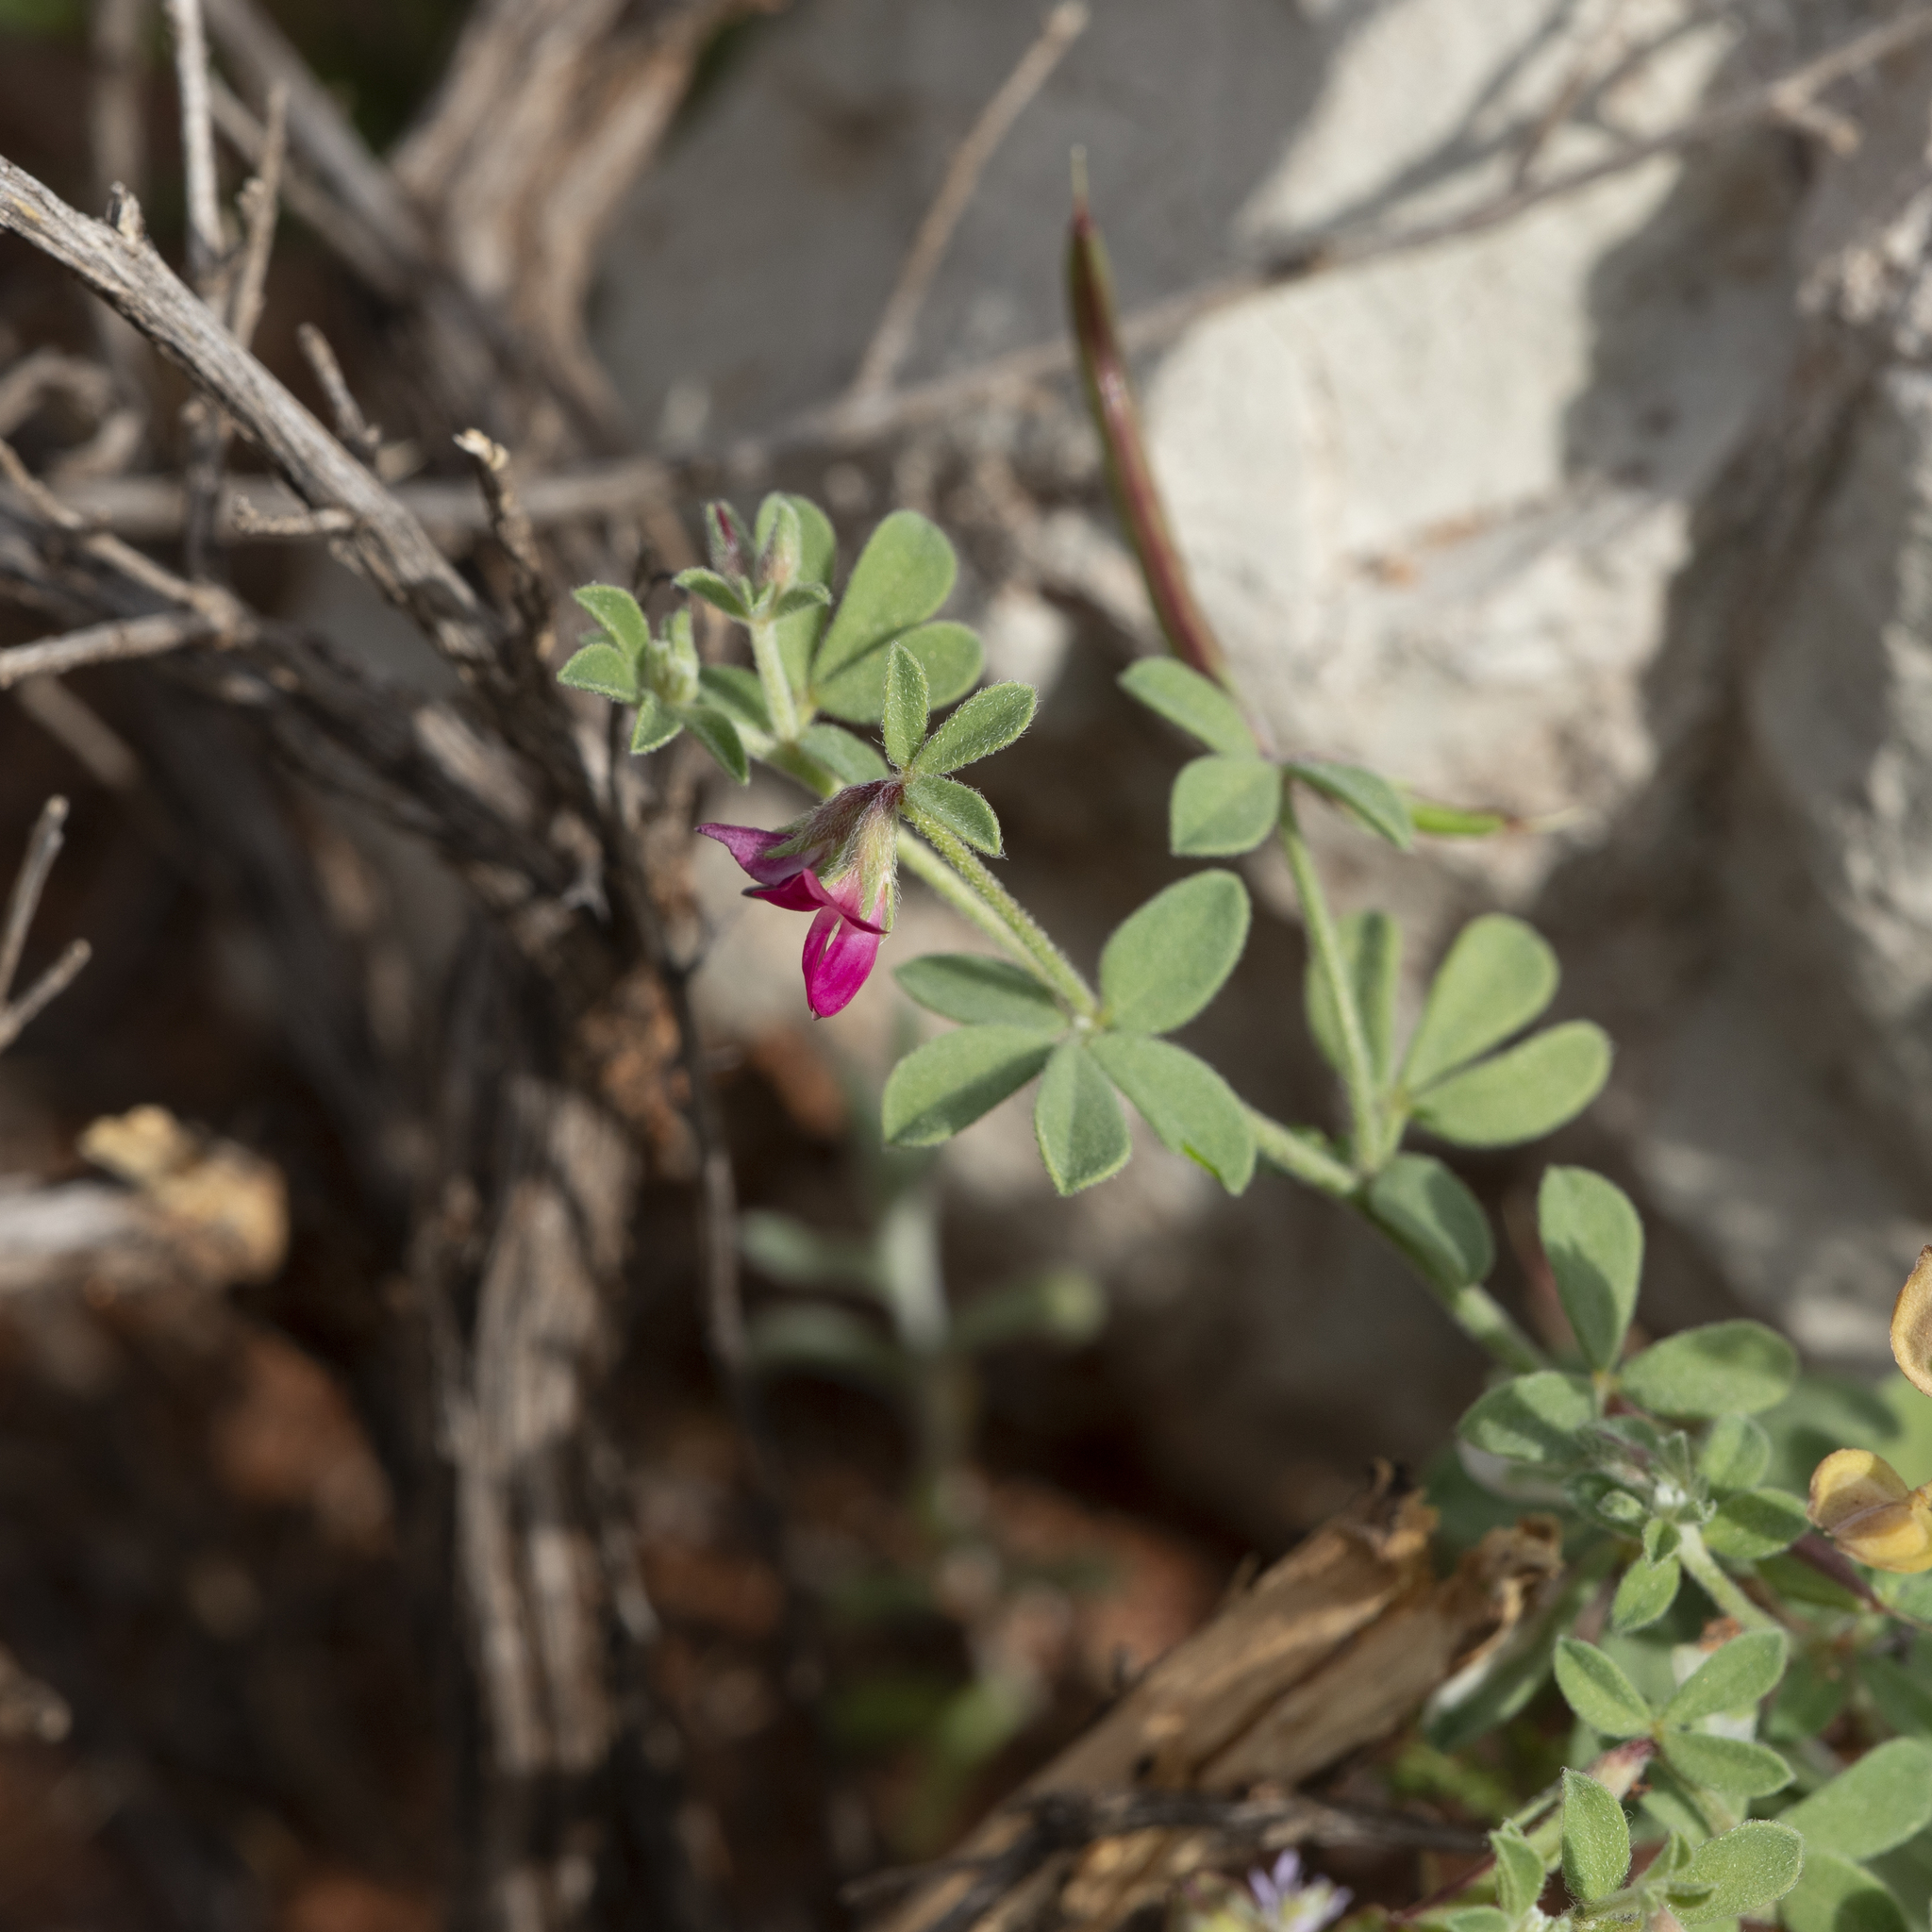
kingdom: Plantae
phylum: Tracheophyta
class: Magnoliopsida
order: Fabales
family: Fabaceae
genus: Lotus
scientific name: Lotus cruentus
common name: Red bird's-foot trefoil
